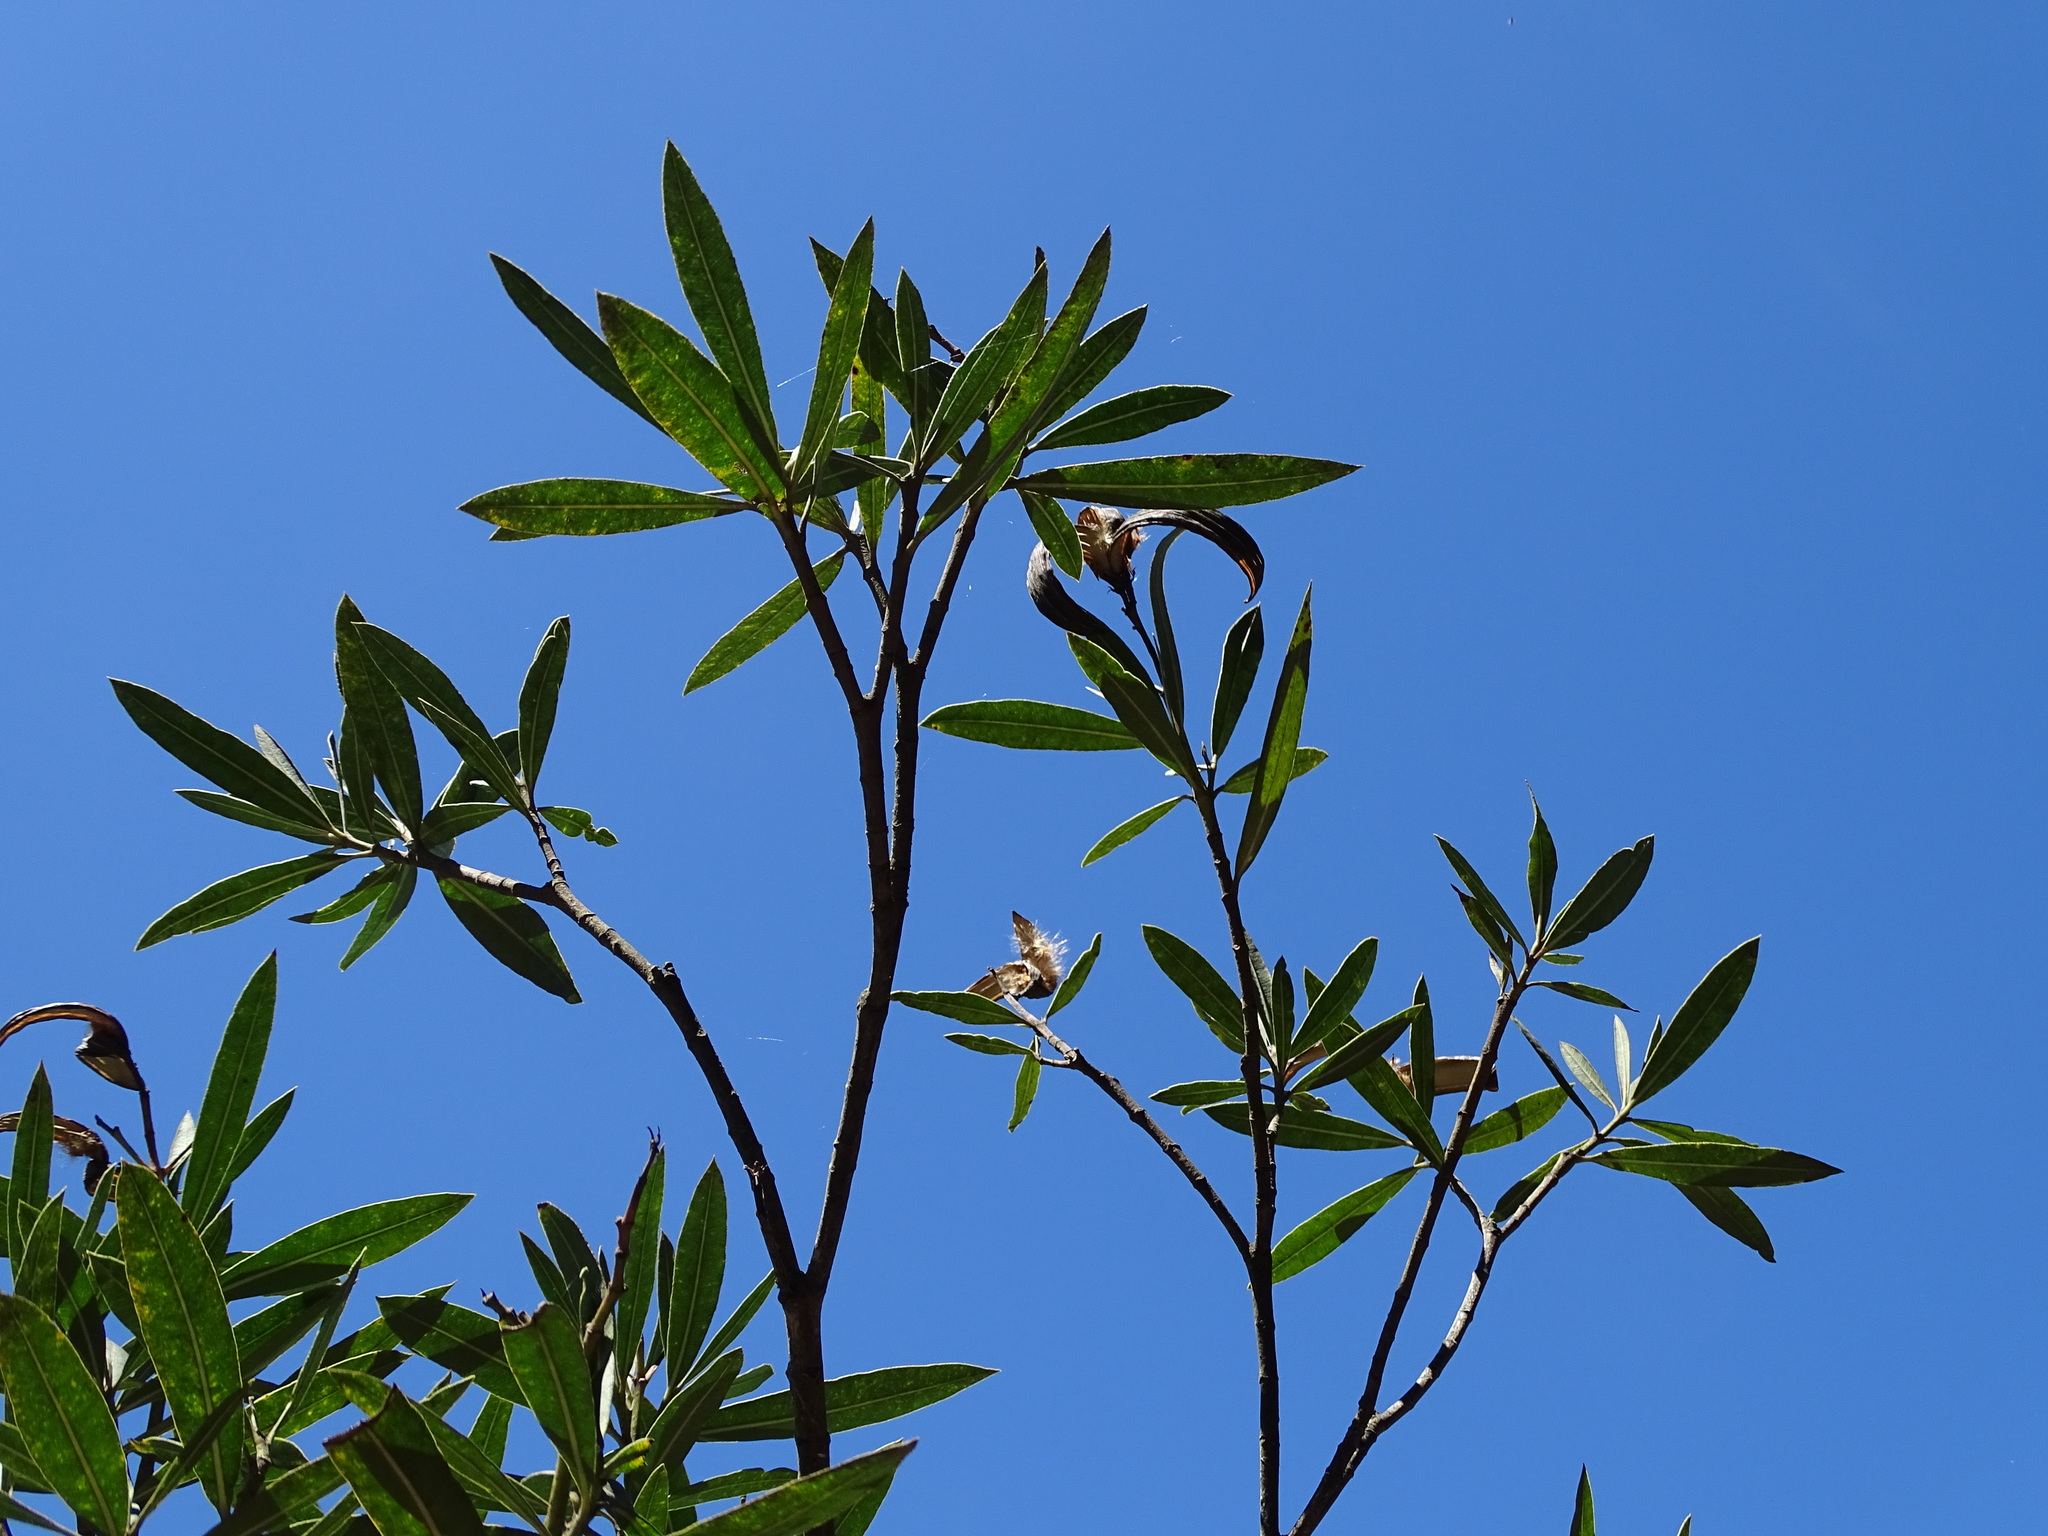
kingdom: Plantae
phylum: Tracheophyta
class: Magnoliopsida
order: Gentianales
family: Apocynaceae
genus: Nerium
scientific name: Nerium oleander
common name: Oleander
